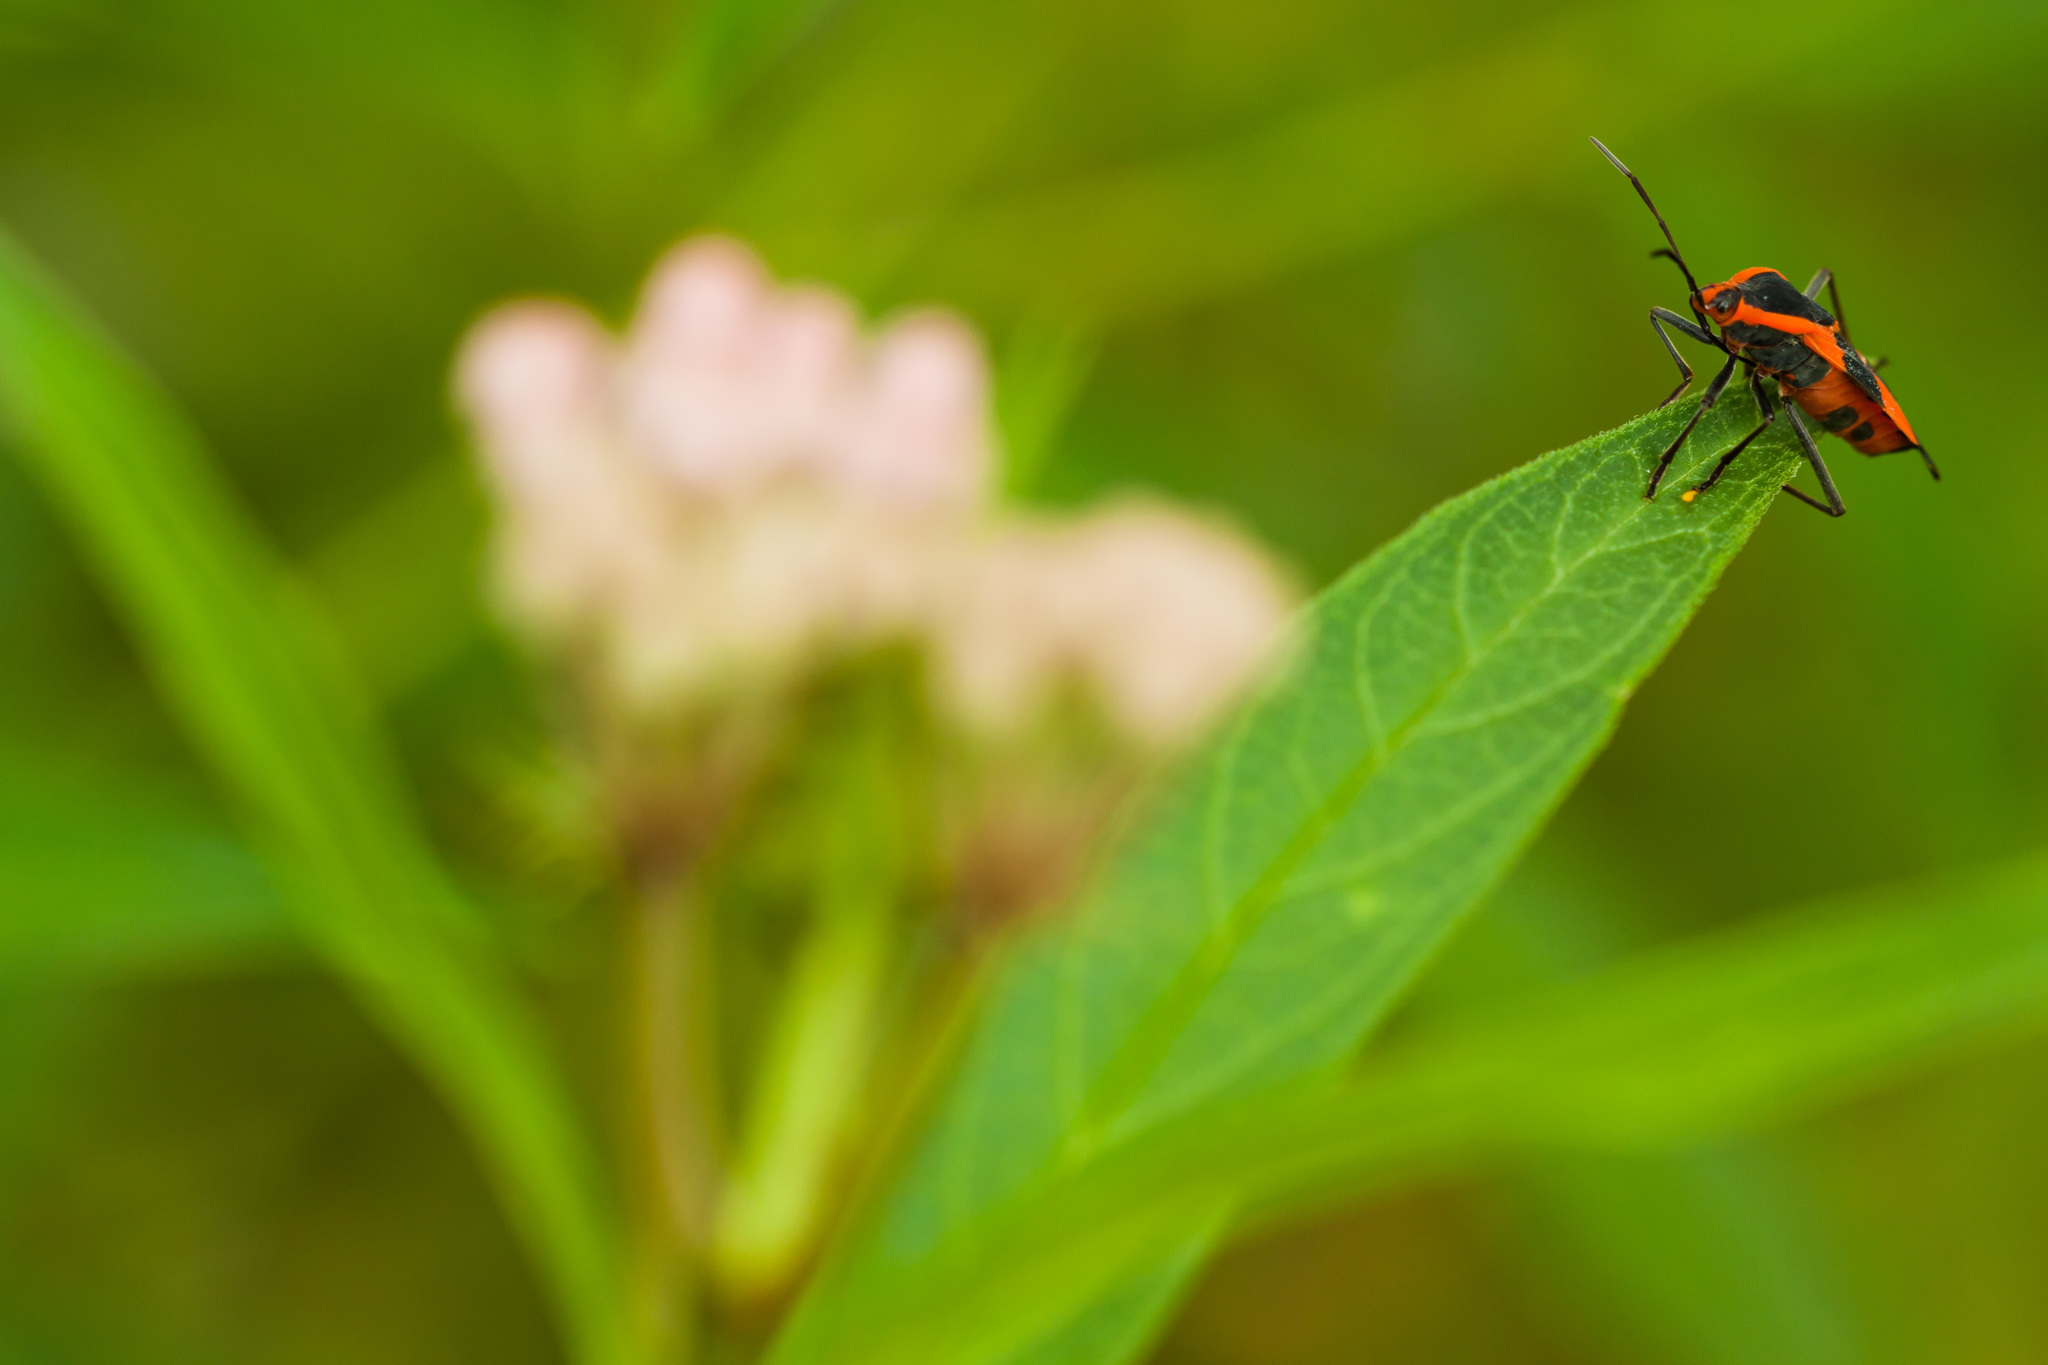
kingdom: Animalia
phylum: Arthropoda
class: Insecta
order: Hemiptera
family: Lygaeidae
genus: Oncopeltus
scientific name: Oncopeltus fasciatus
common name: Large milkweed bug
